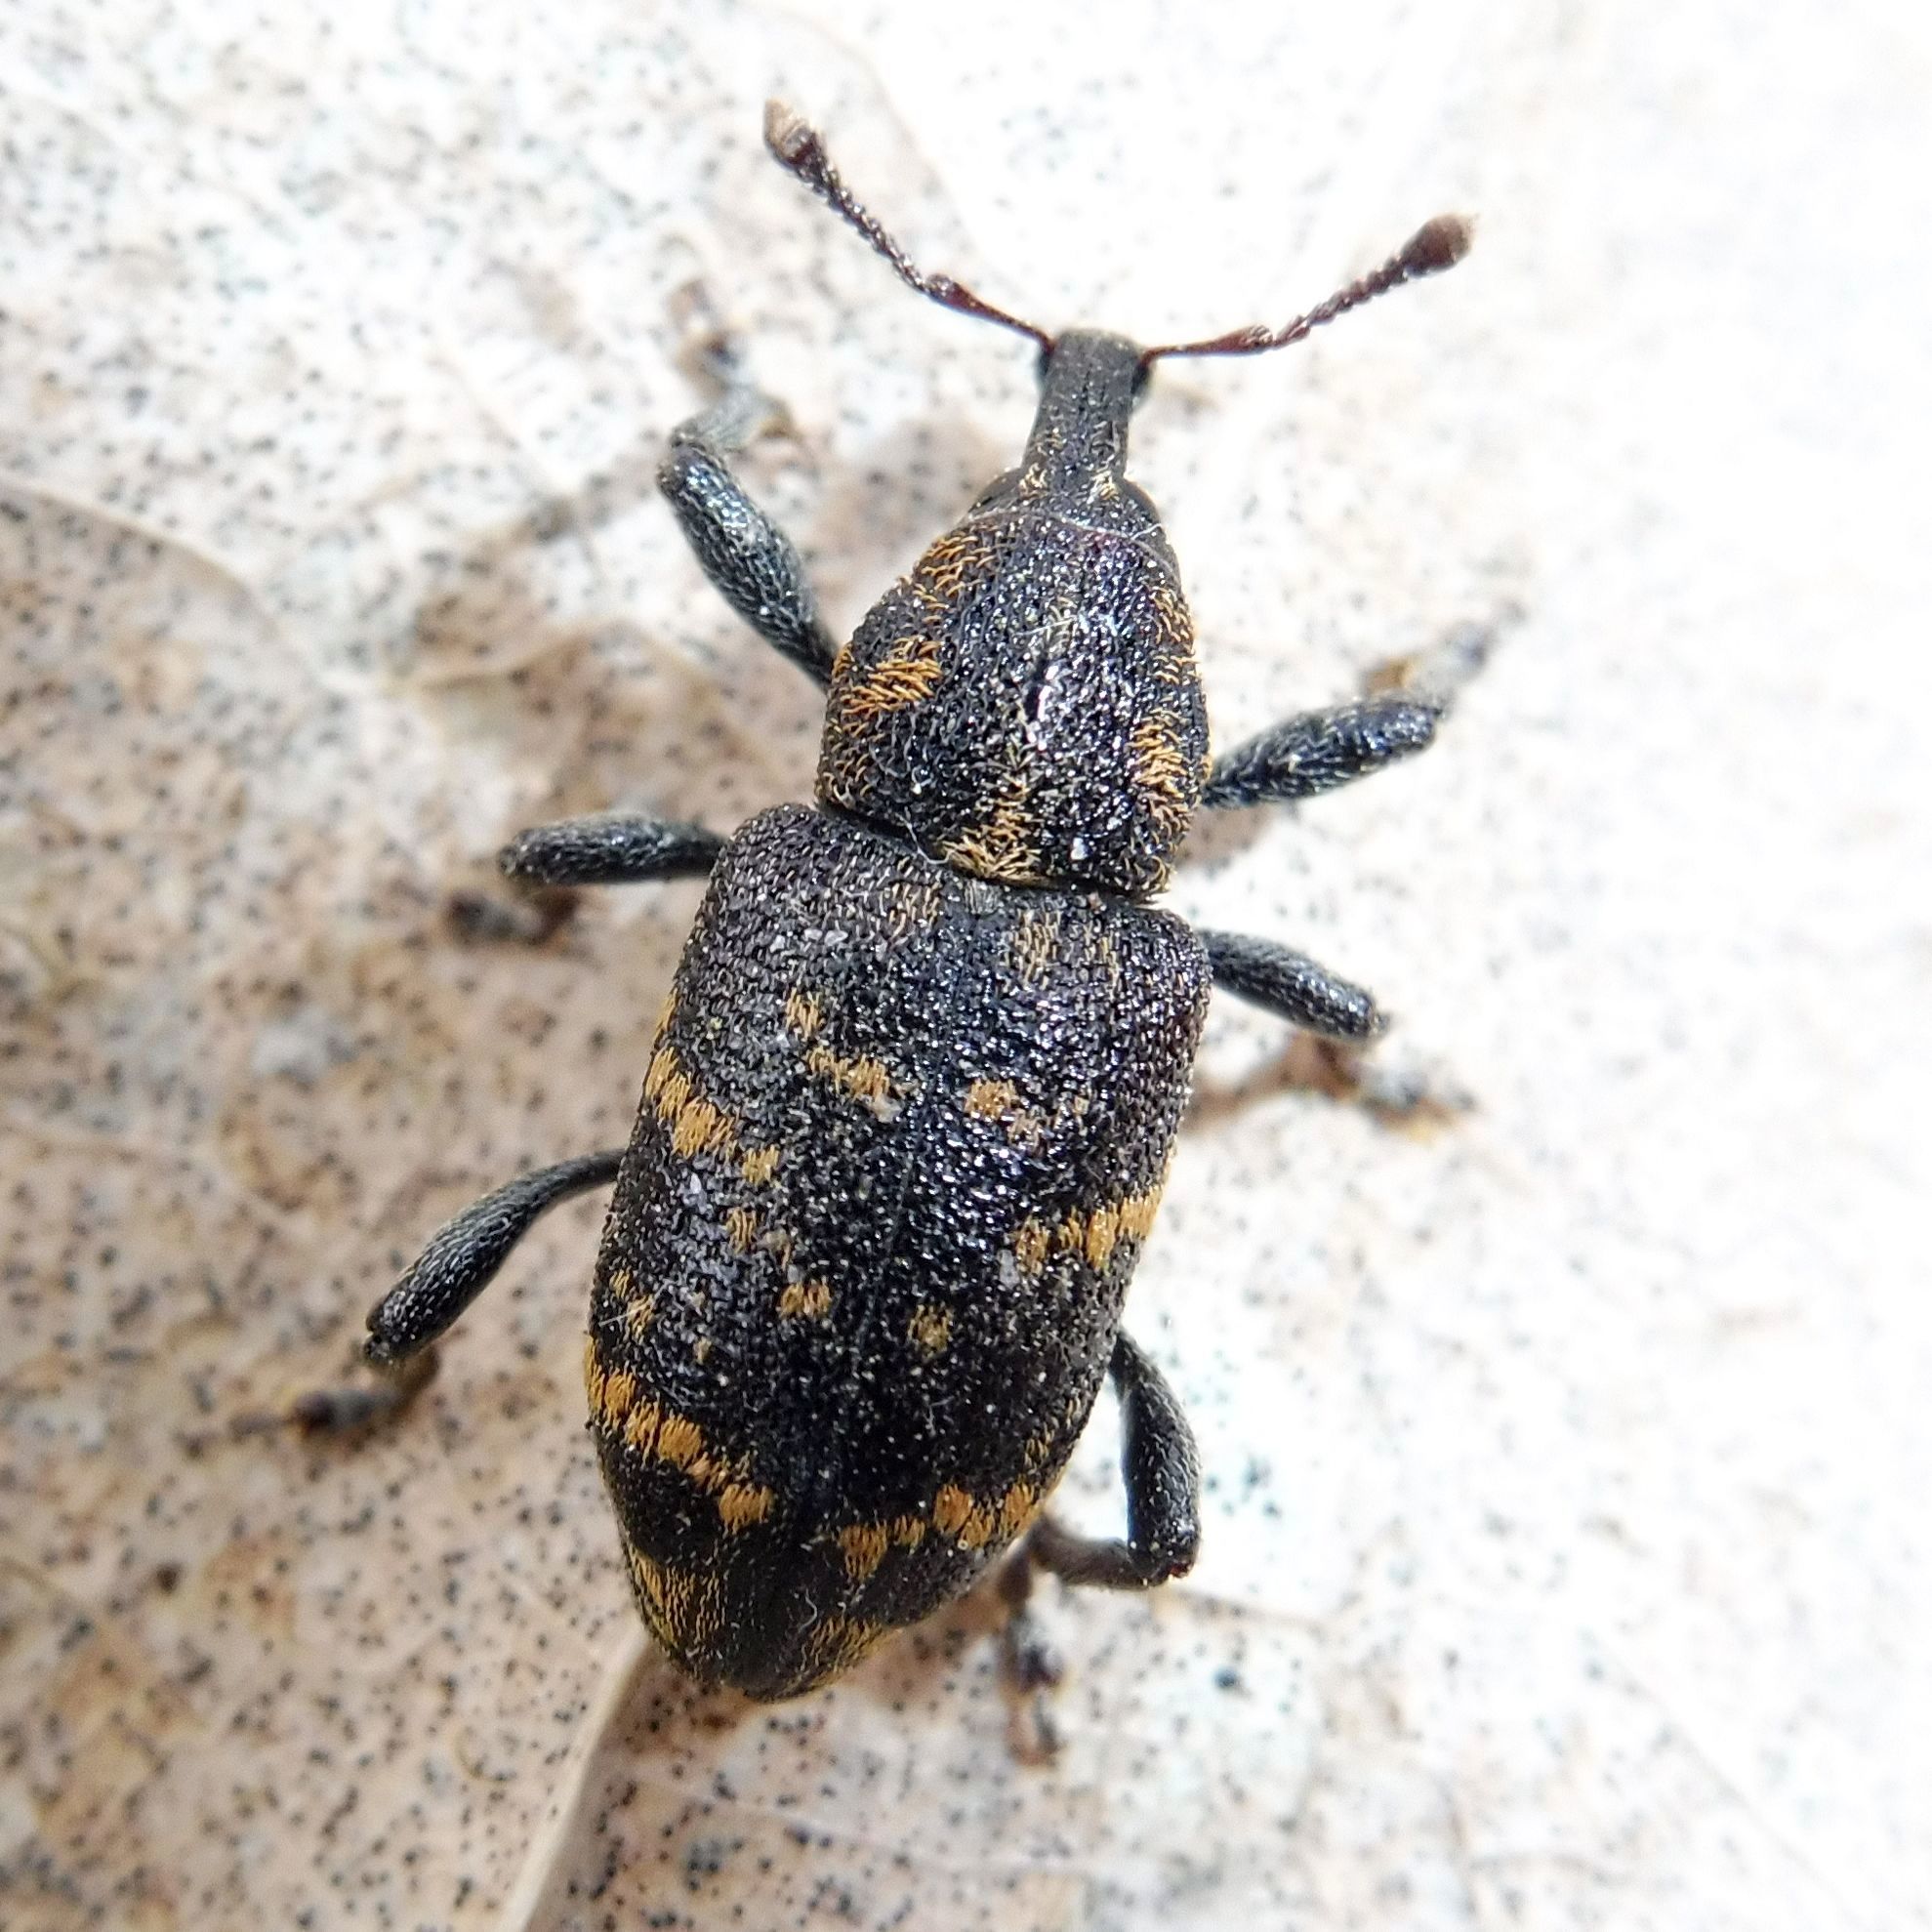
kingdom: Animalia
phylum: Arthropoda
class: Insecta
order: Coleoptera
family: Curculionidae
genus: Hylobius
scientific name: Hylobius abietis
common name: Large pine weevil
